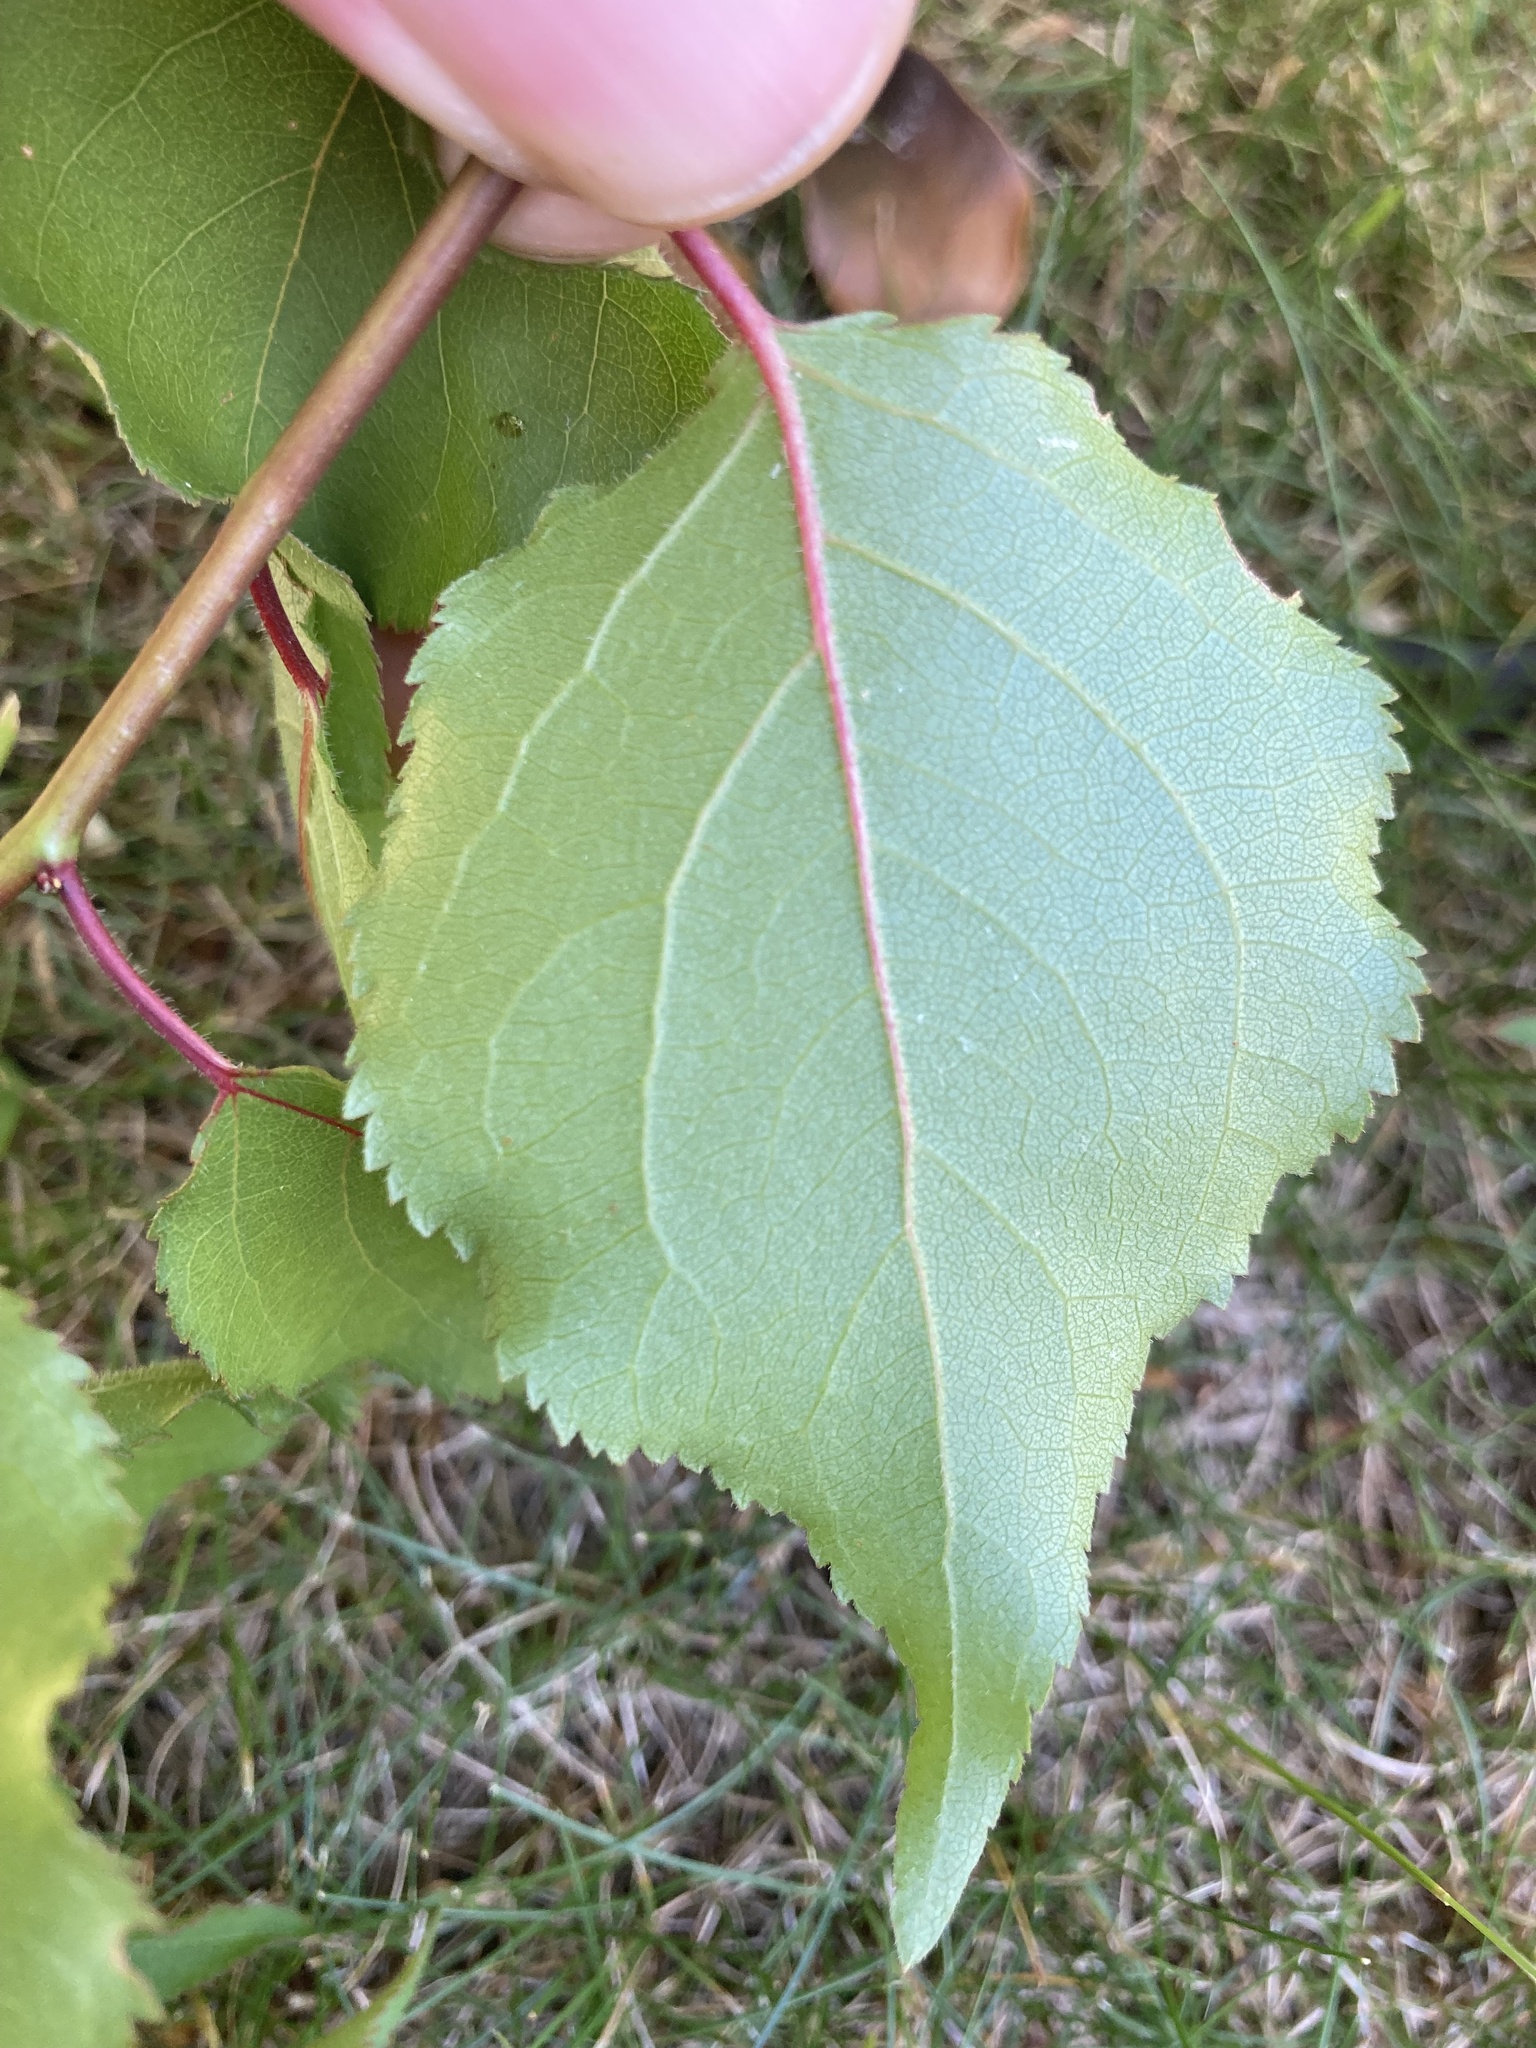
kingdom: Plantae
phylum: Tracheophyta
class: Magnoliopsida
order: Rosales
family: Rosaceae
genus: Prunus
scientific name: Prunus armeniaca
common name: Apricot
